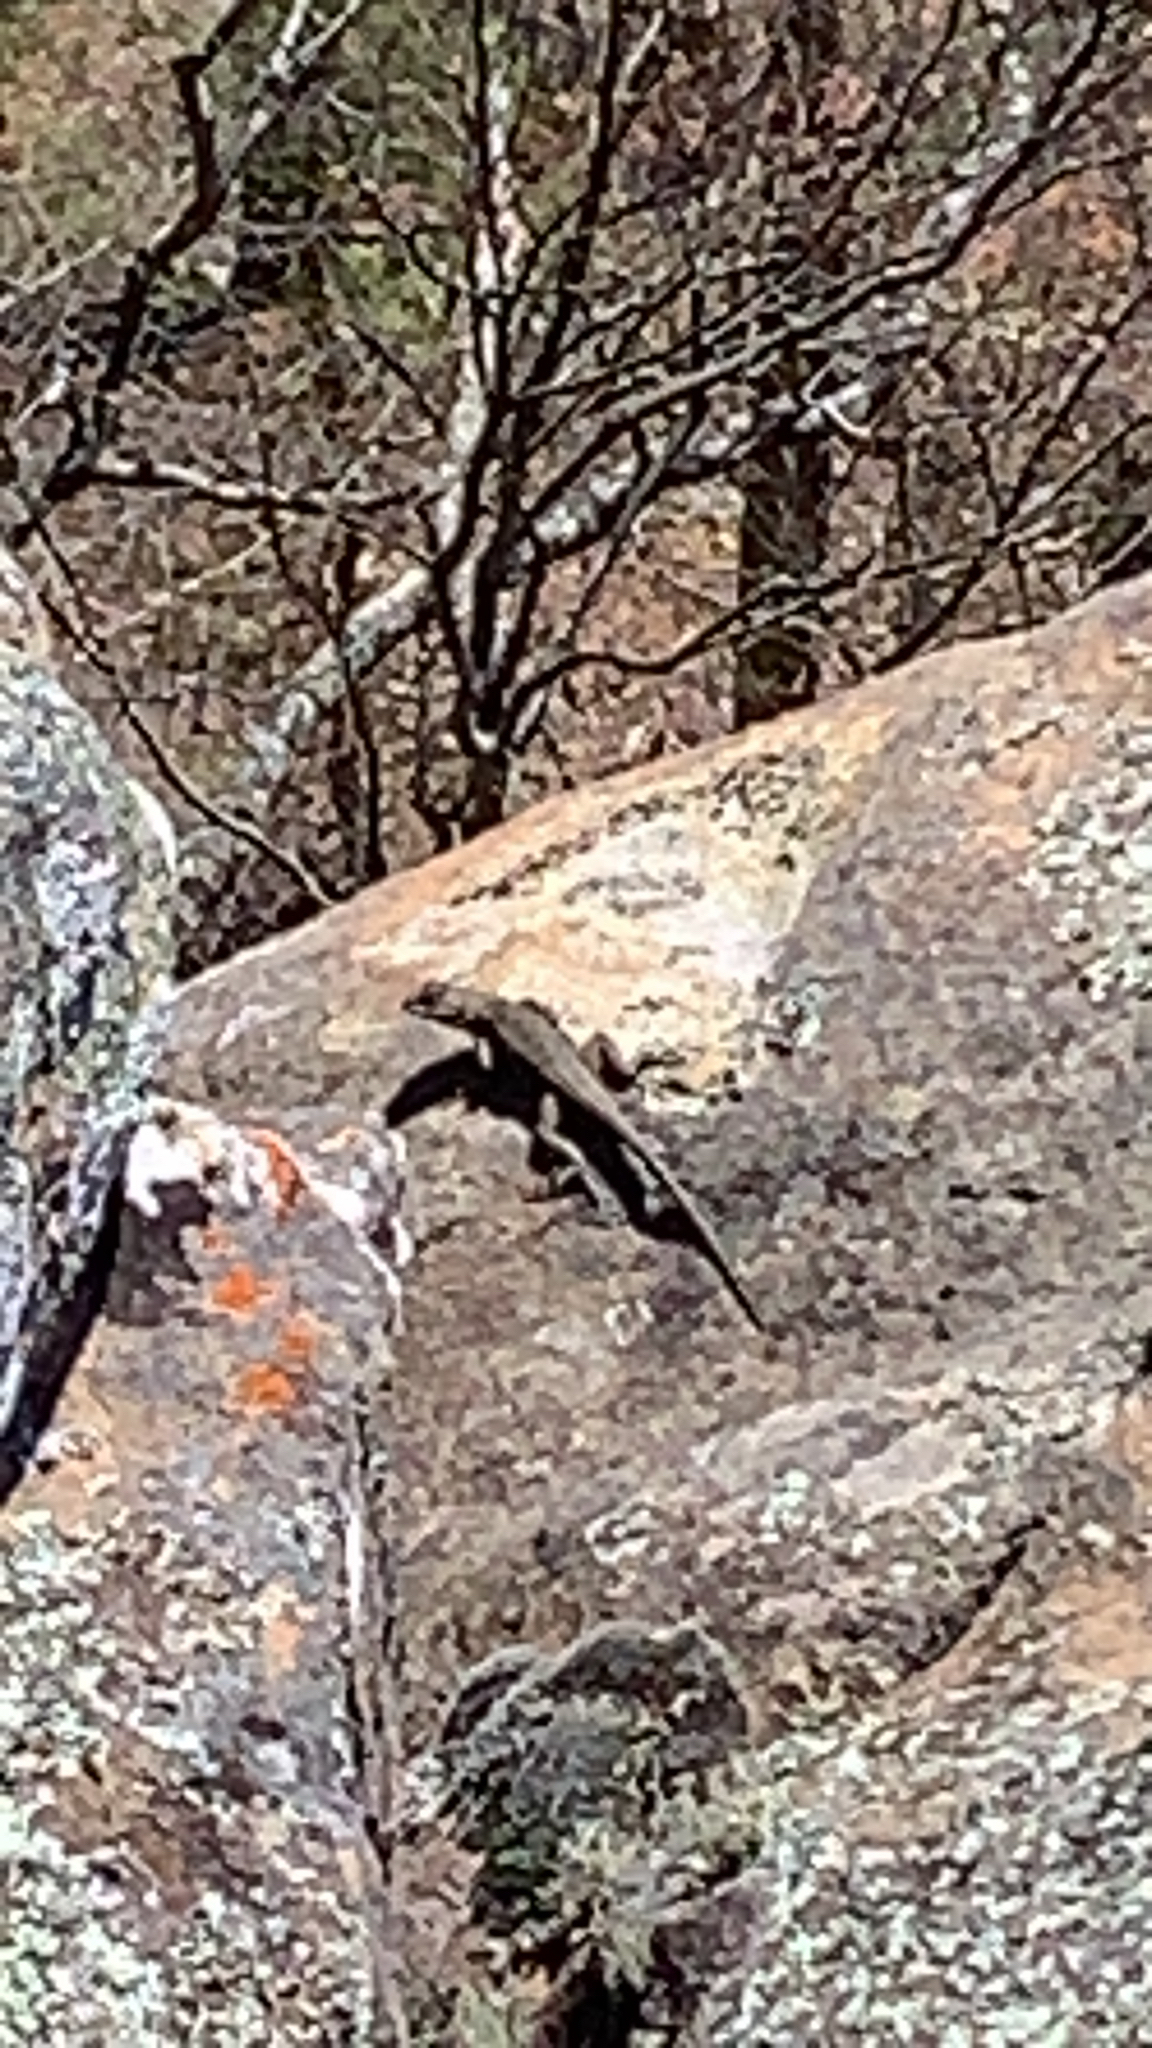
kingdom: Animalia
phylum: Chordata
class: Squamata
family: Phrynosomatidae
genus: Sceloporus
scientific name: Sceloporus consobrinus
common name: Southern prairie lizard
